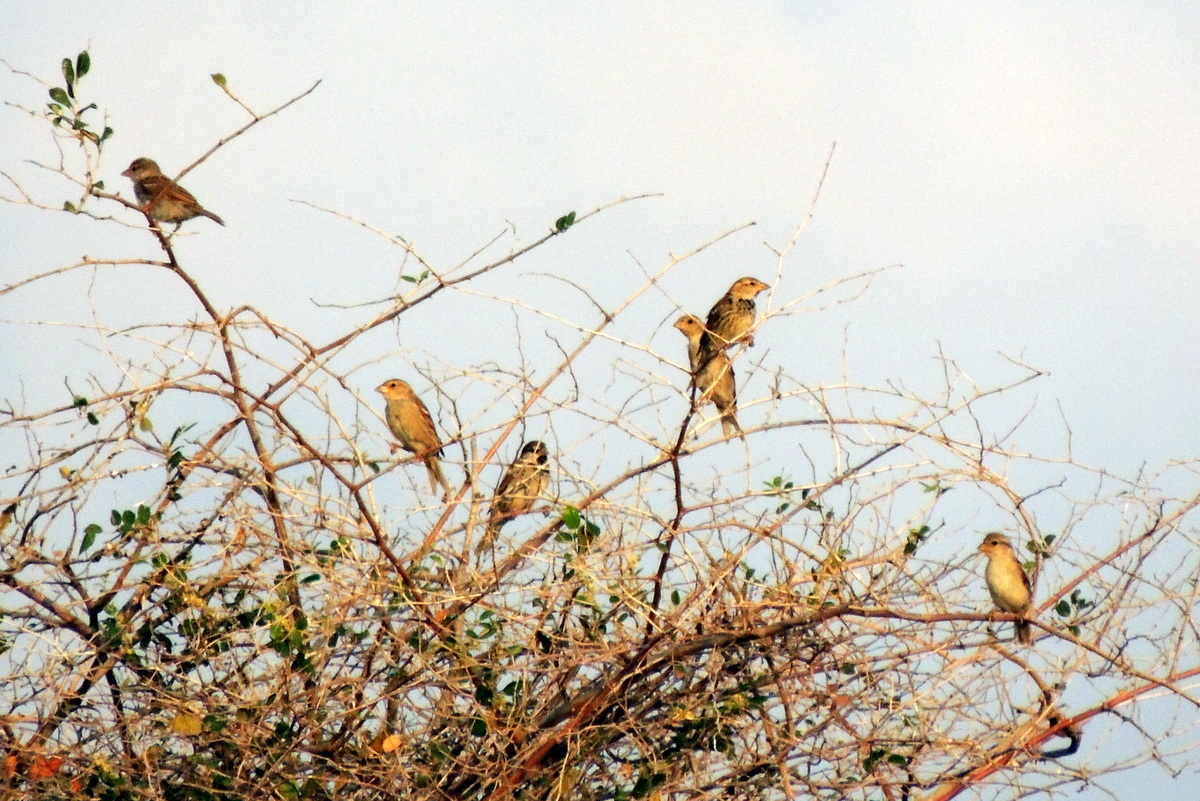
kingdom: Animalia
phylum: Chordata
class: Aves
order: Passeriformes
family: Passeridae
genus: Passer
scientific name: Passer domesticus
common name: House sparrow
